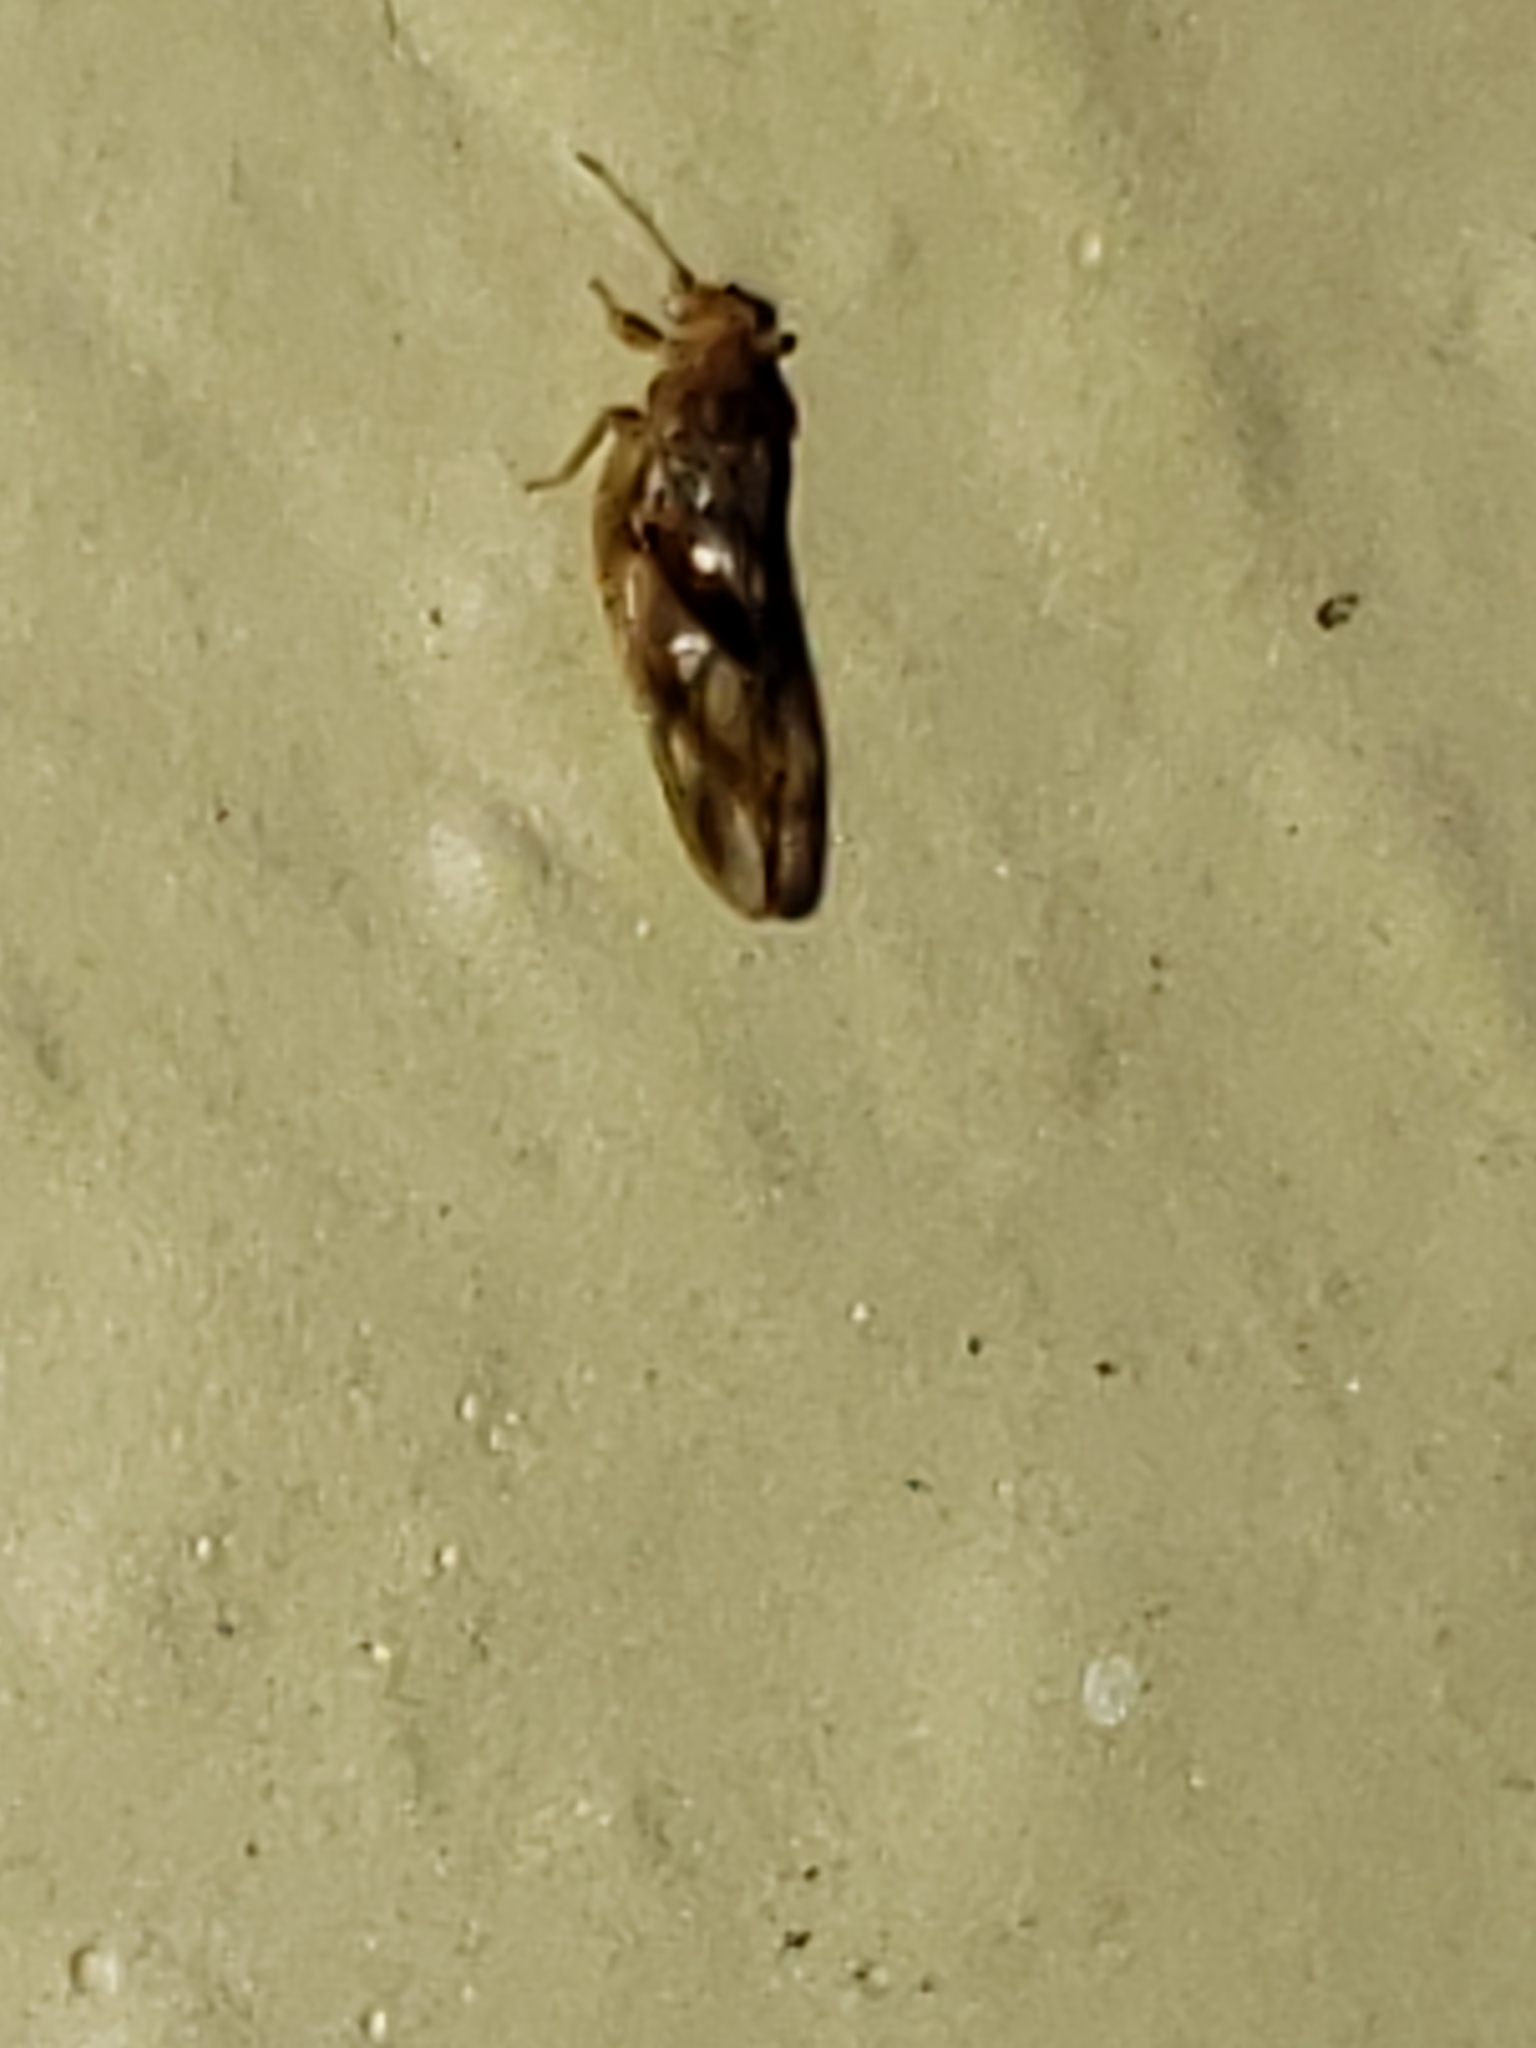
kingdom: Animalia
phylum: Arthropoda
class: Insecta
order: Hemiptera
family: Triozidae
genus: Phylloplecta
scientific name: Phylloplecta tripunctata
